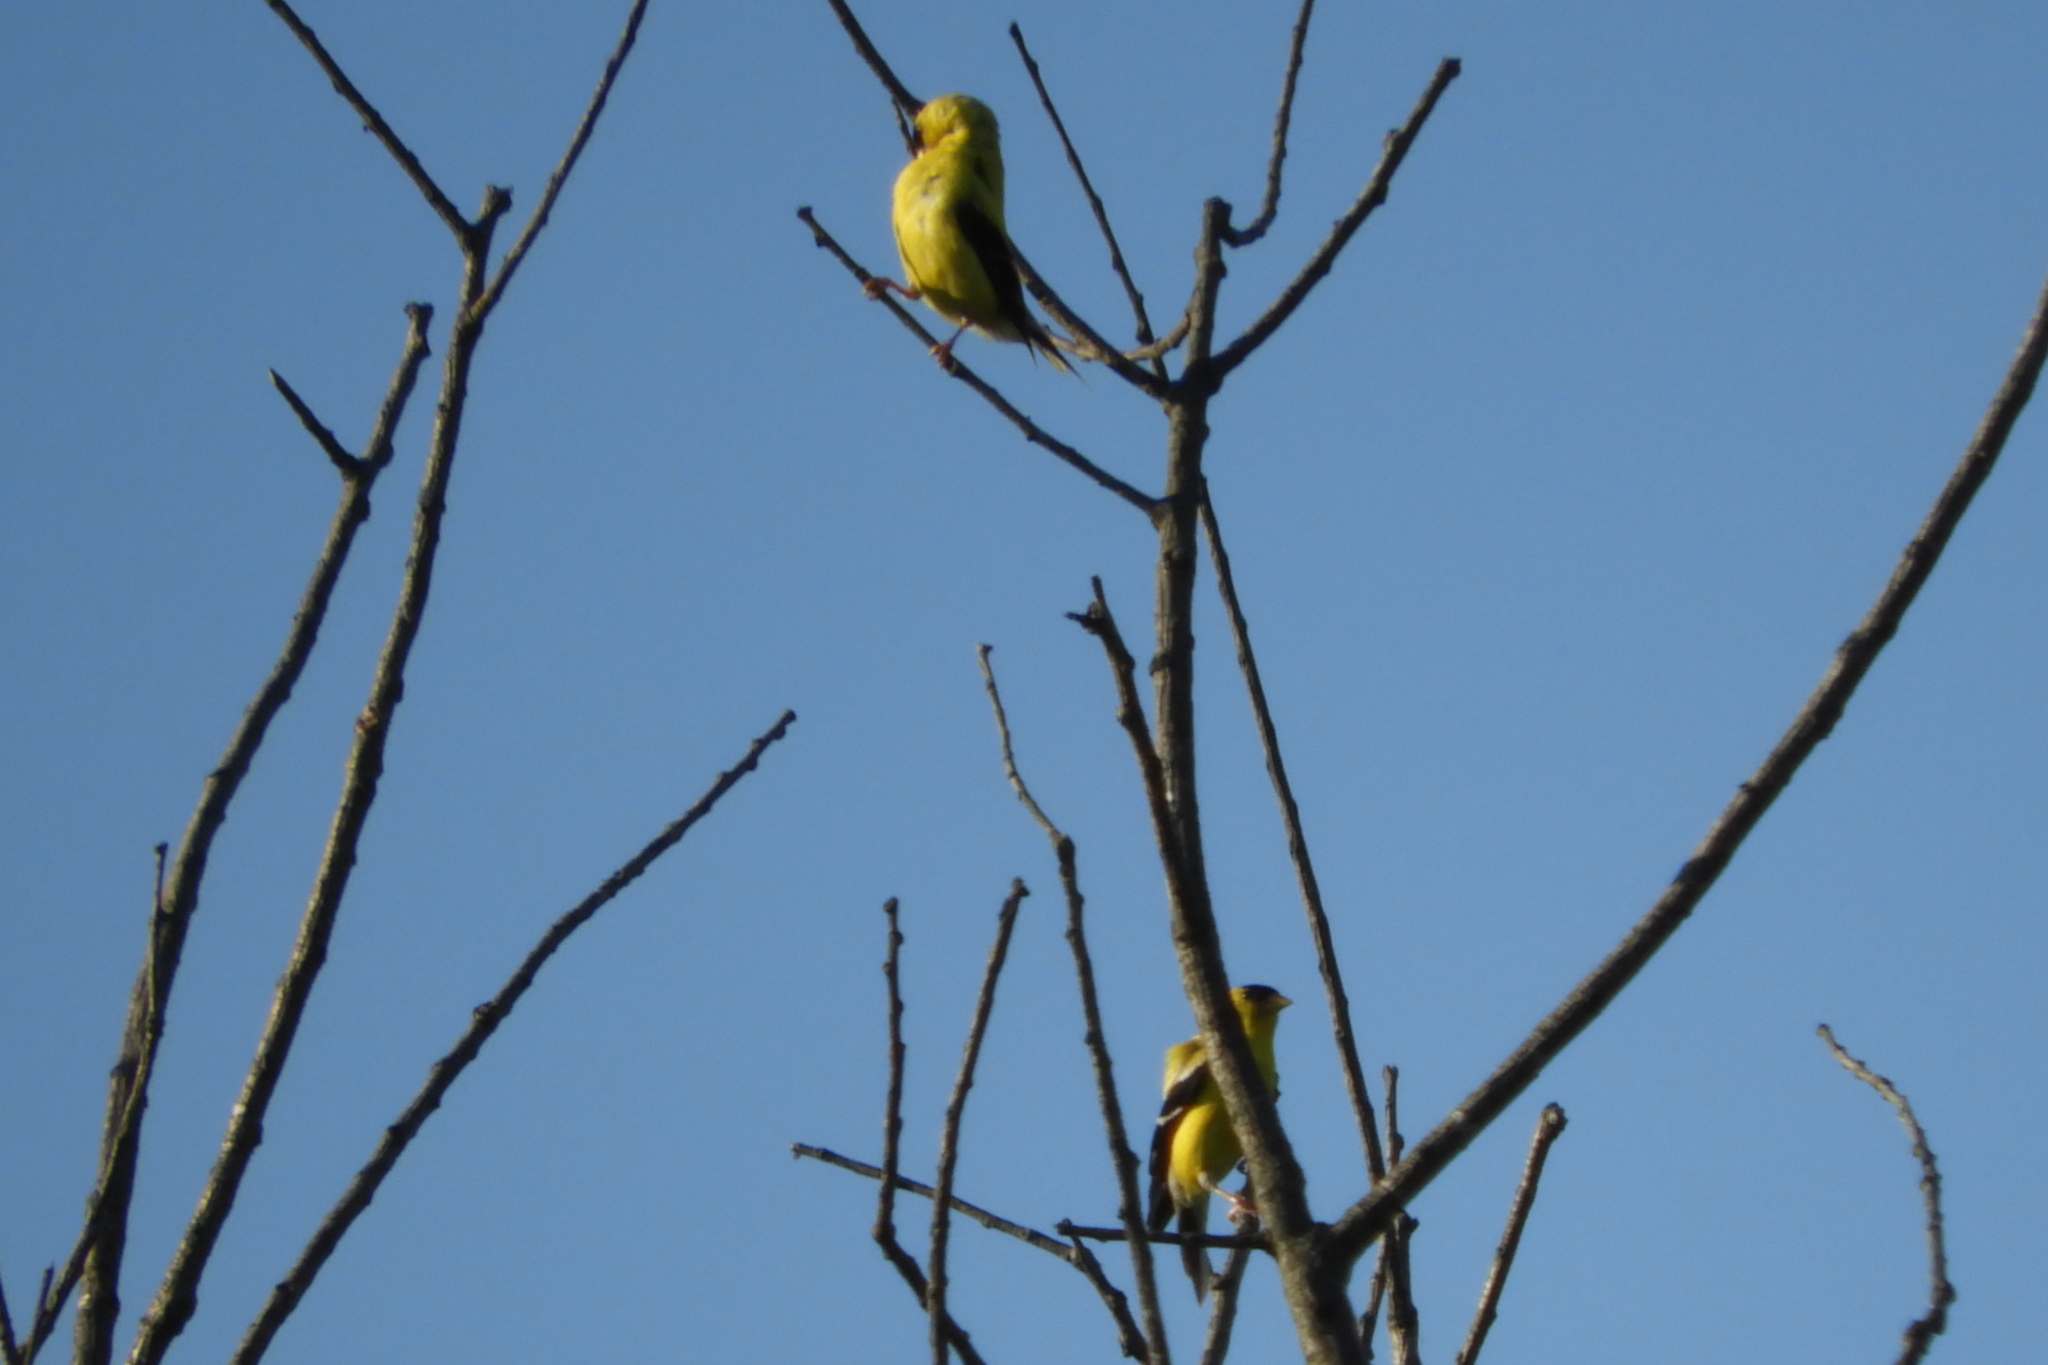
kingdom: Animalia
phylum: Chordata
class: Aves
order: Passeriformes
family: Fringillidae
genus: Spinus
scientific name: Spinus tristis
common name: American goldfinch
